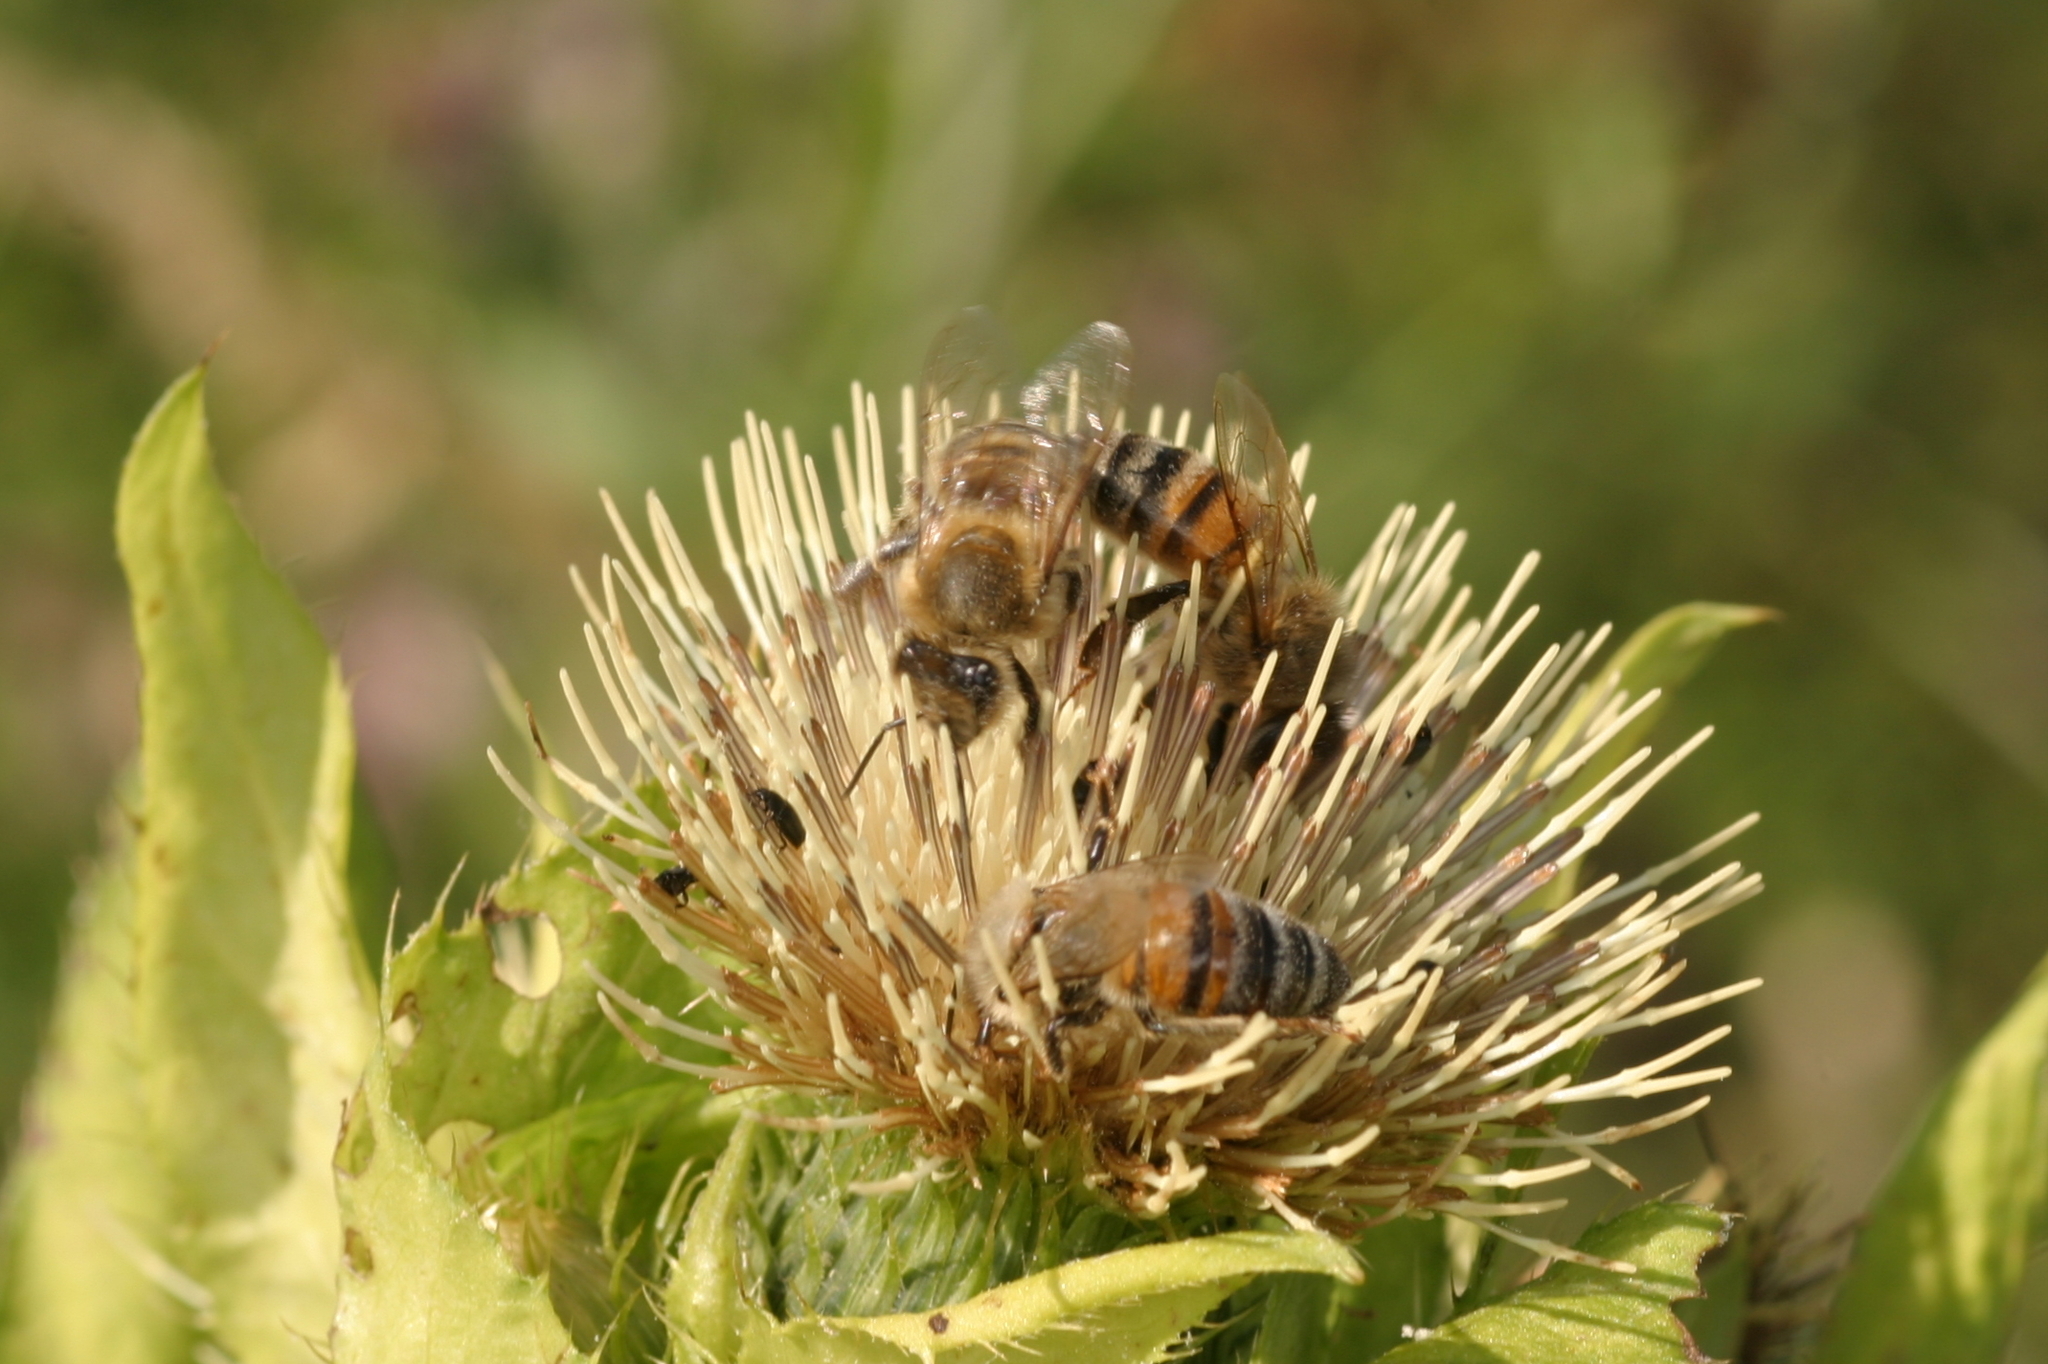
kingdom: Animalia
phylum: Arthropoda
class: Insecta
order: Hymenoptera
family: Apidae
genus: Apis
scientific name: Apis mellifera
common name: Honey bee
